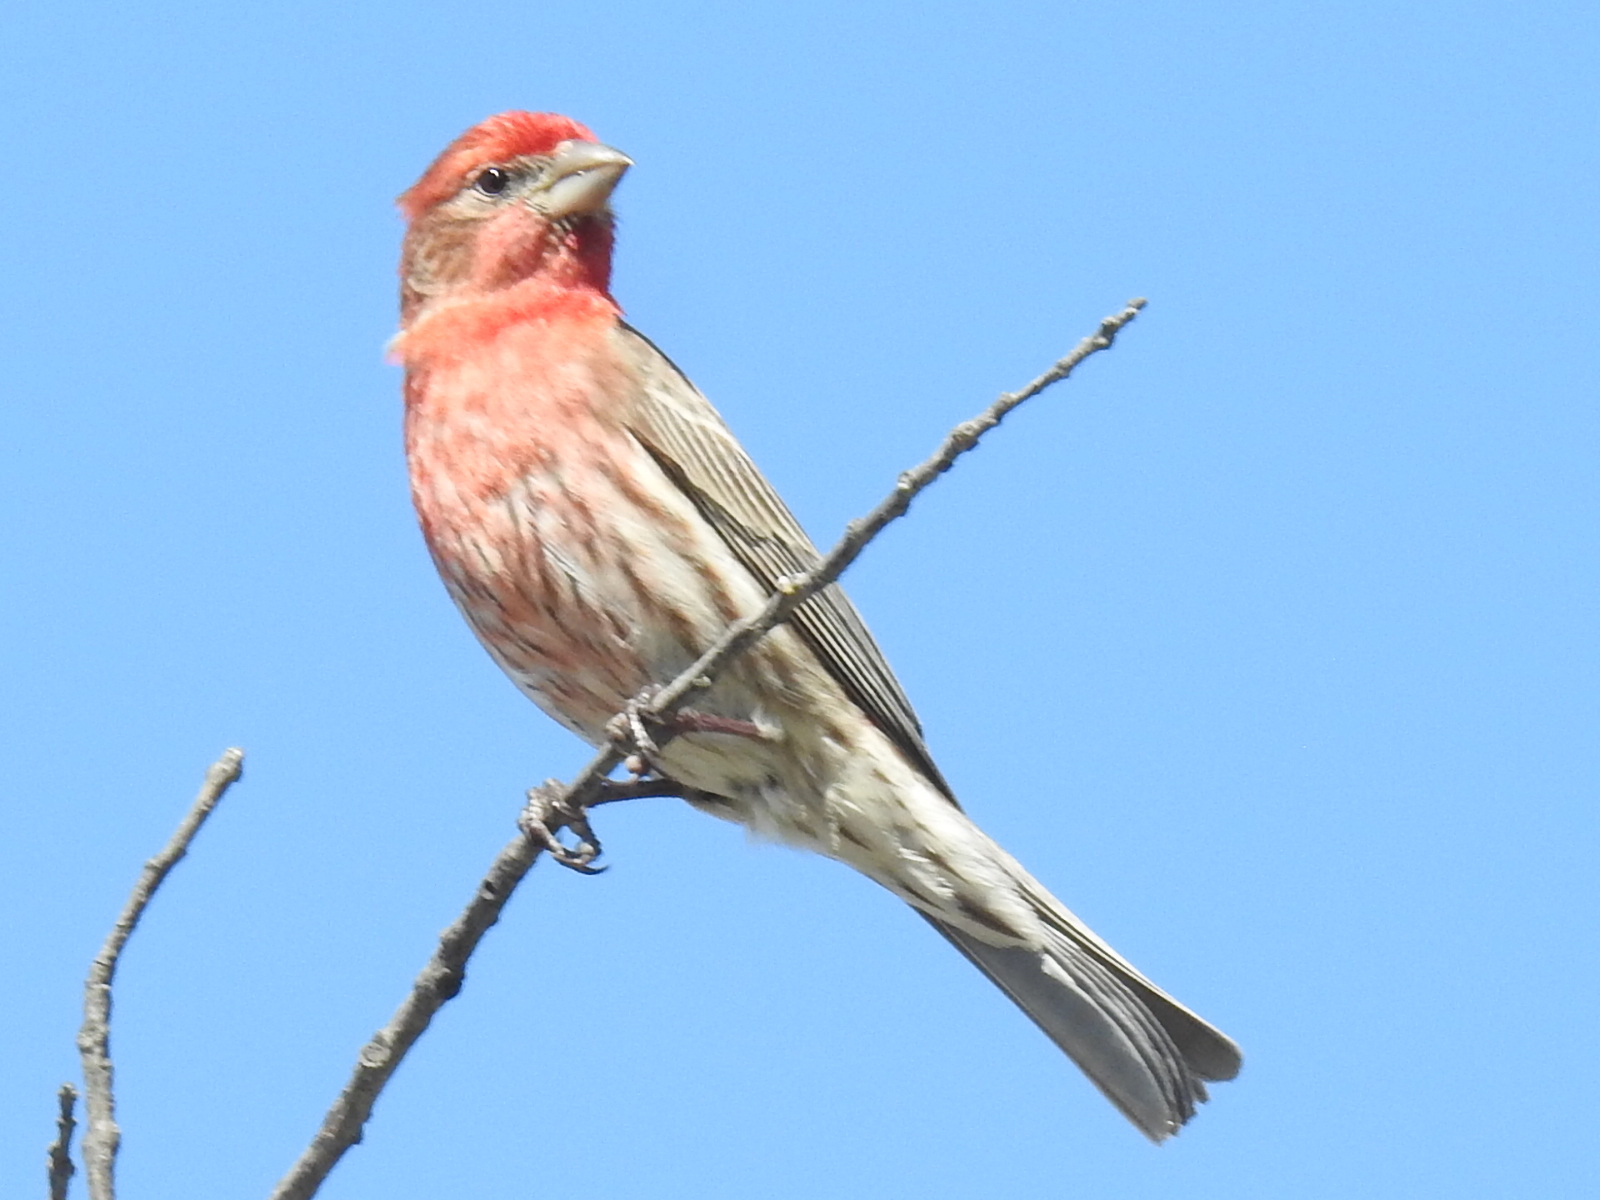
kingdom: Animalia
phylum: Chordata
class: Aves
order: Passeriformes
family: Fringillidae
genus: Haemorhous
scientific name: Haemorhous mexicanus
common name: House finch
